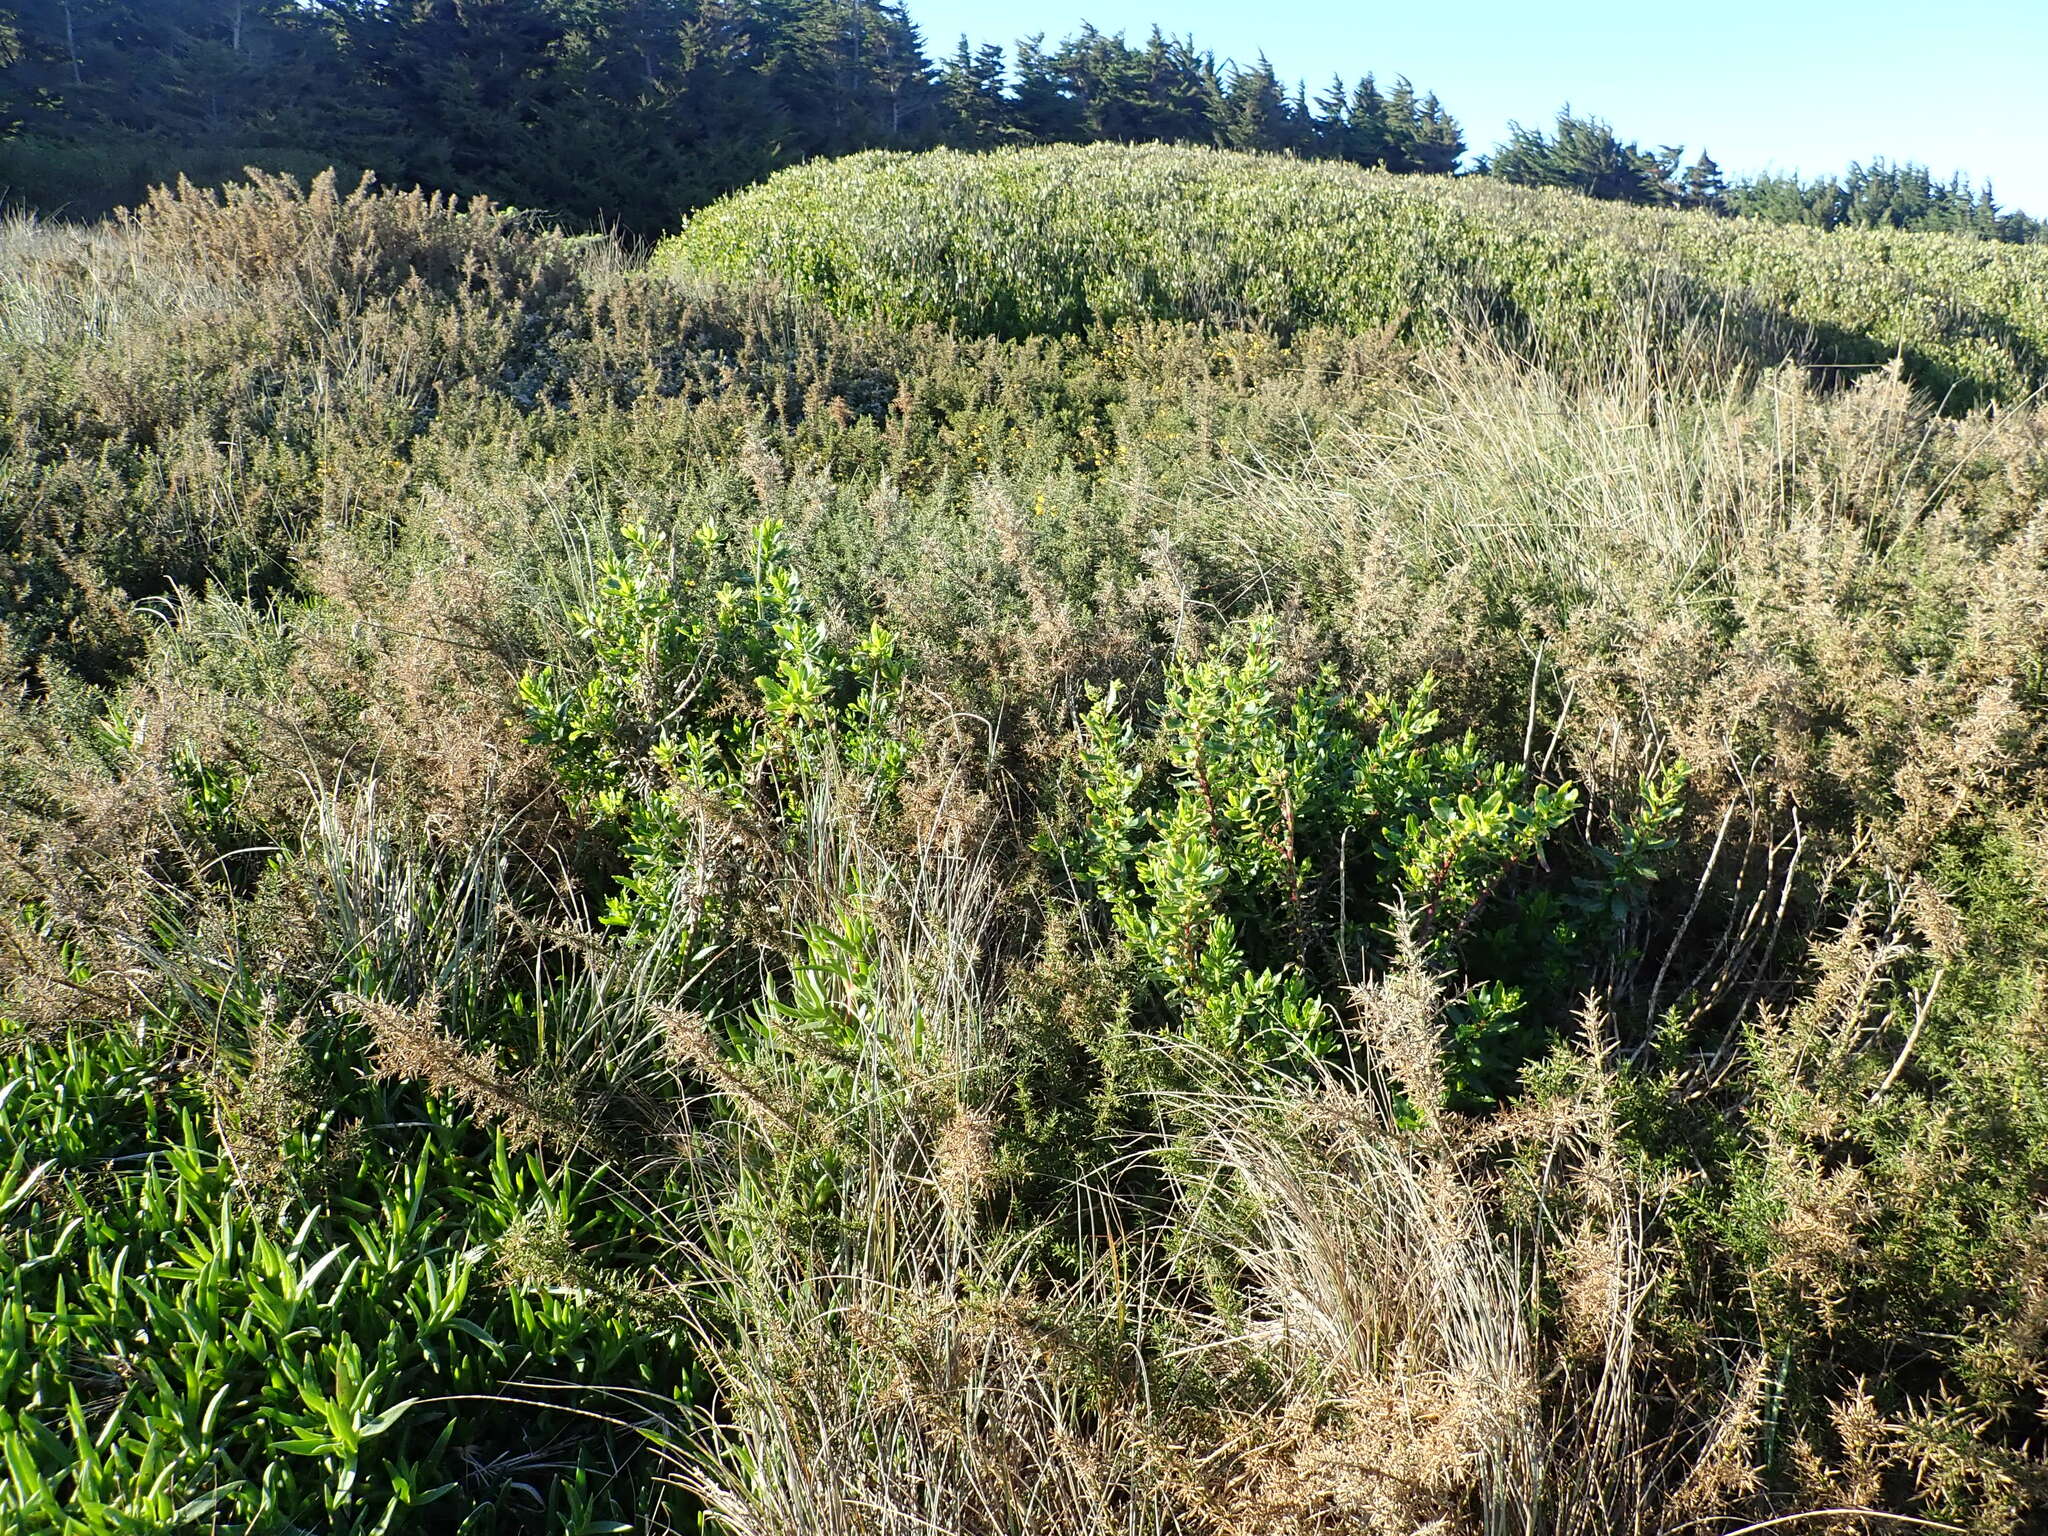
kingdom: Plantae
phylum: Tracheophyta
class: Magnoliopsida
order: Asterales
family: Asteraceae
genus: Senecio
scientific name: Senecio glastifolius
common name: Woad-leaved ragwort
